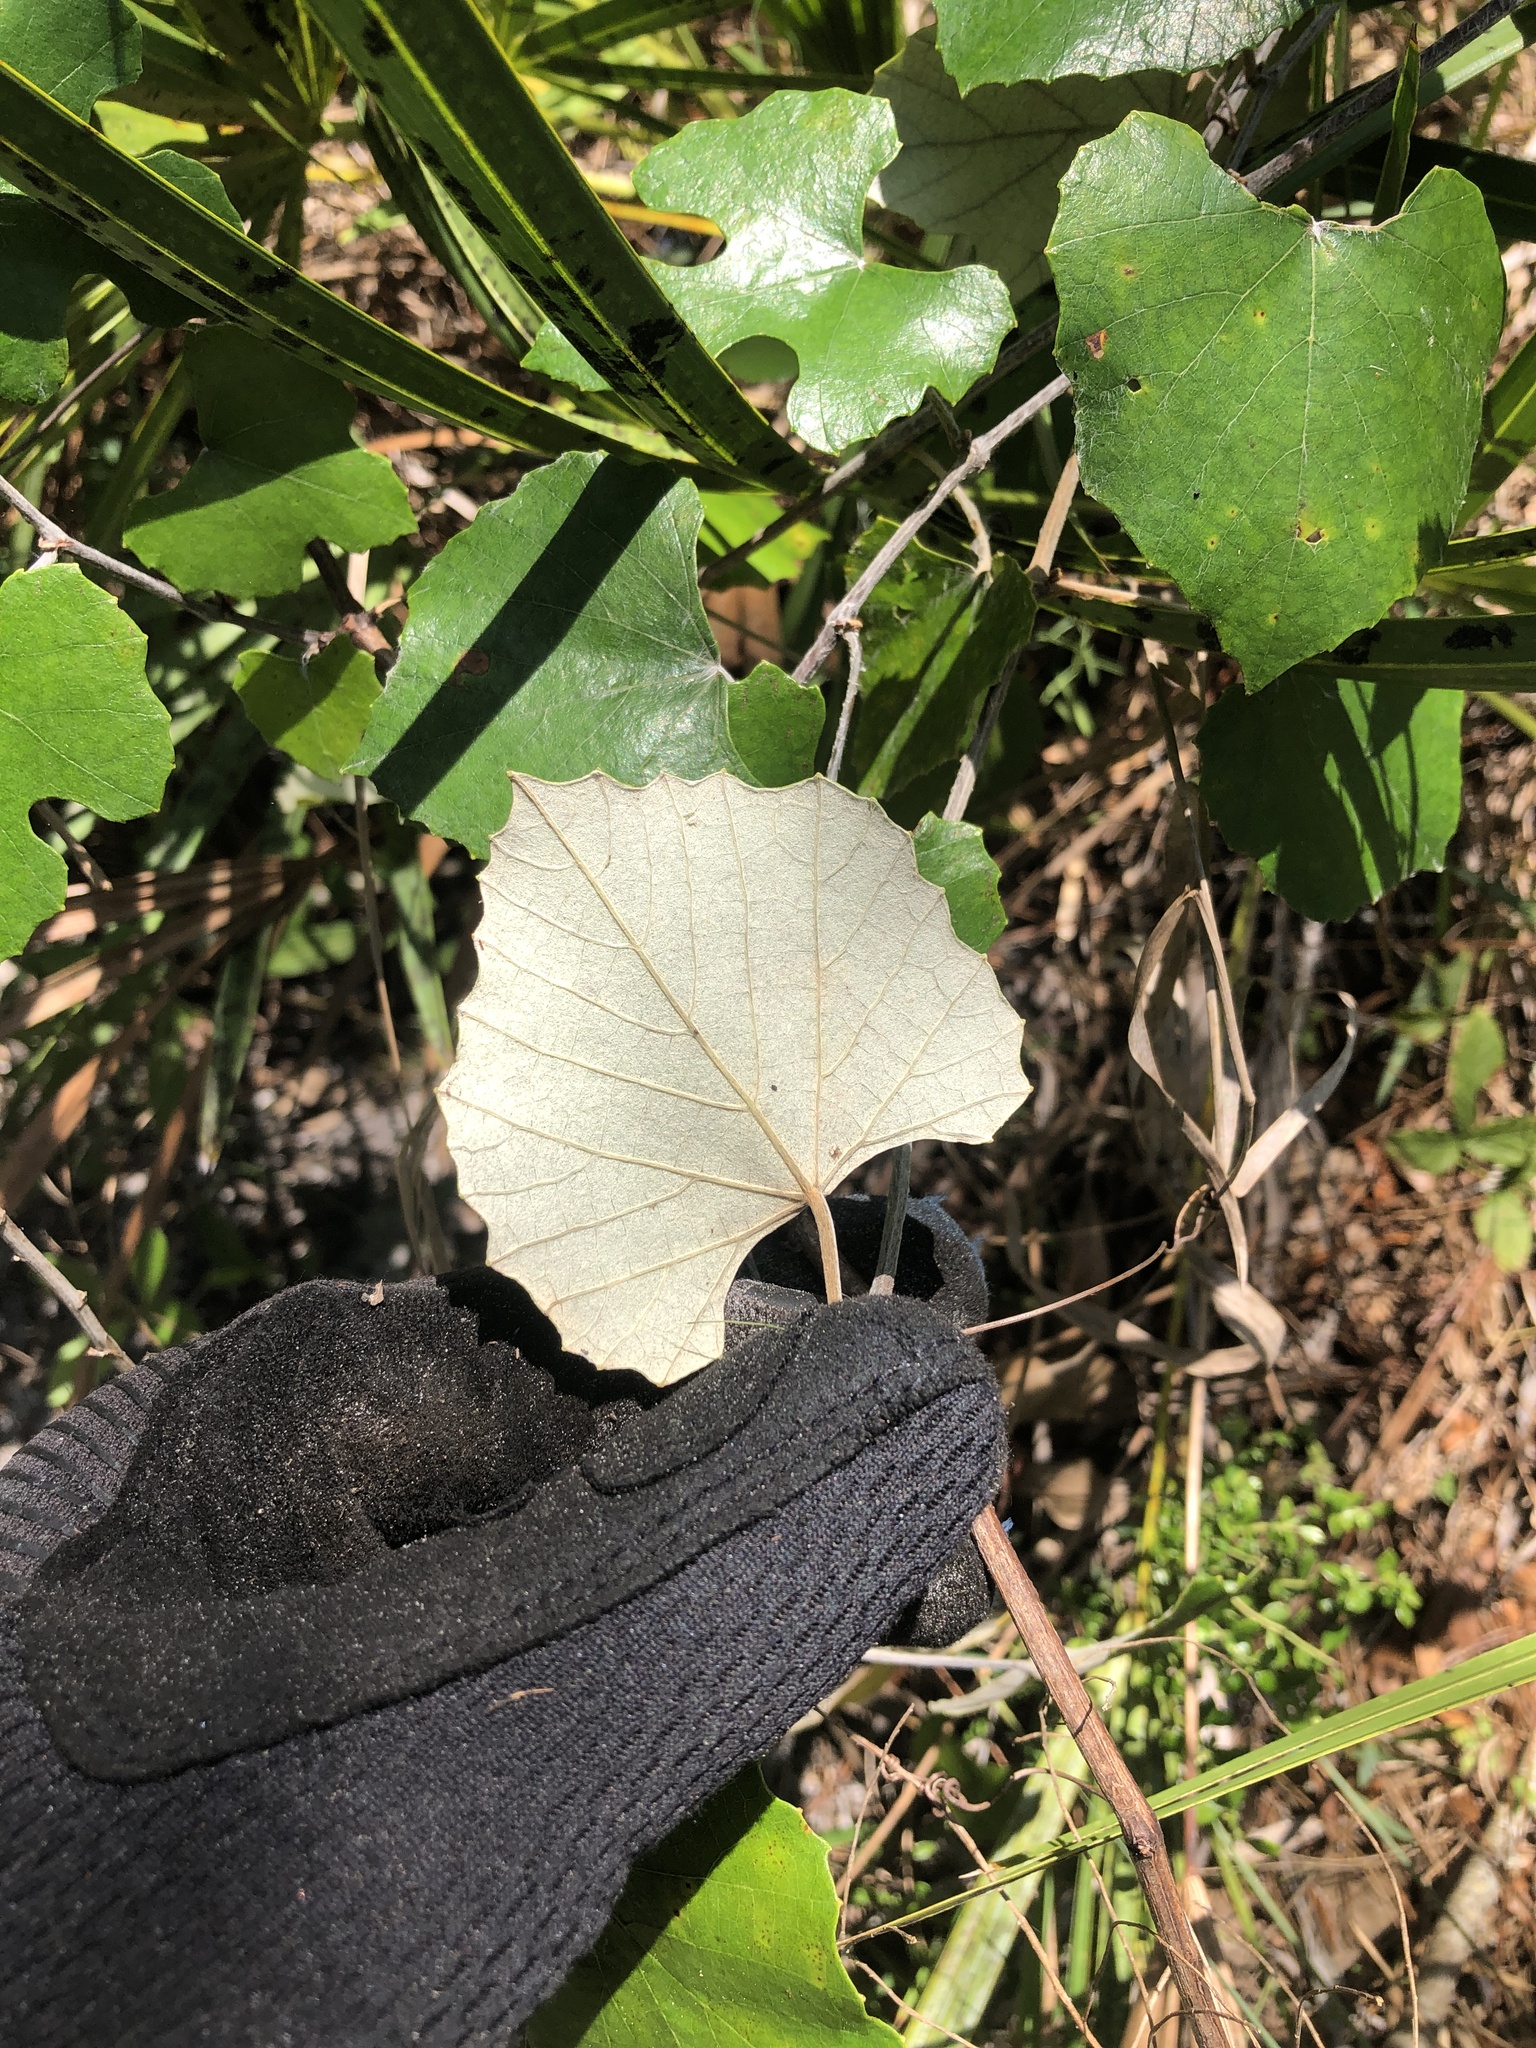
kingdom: Plantae
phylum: Tracheophyta
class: Magnoliopsida
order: Vitales
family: Vitaceae
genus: Vitis
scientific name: Vitis shuttleworthii
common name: Caloosa grape
